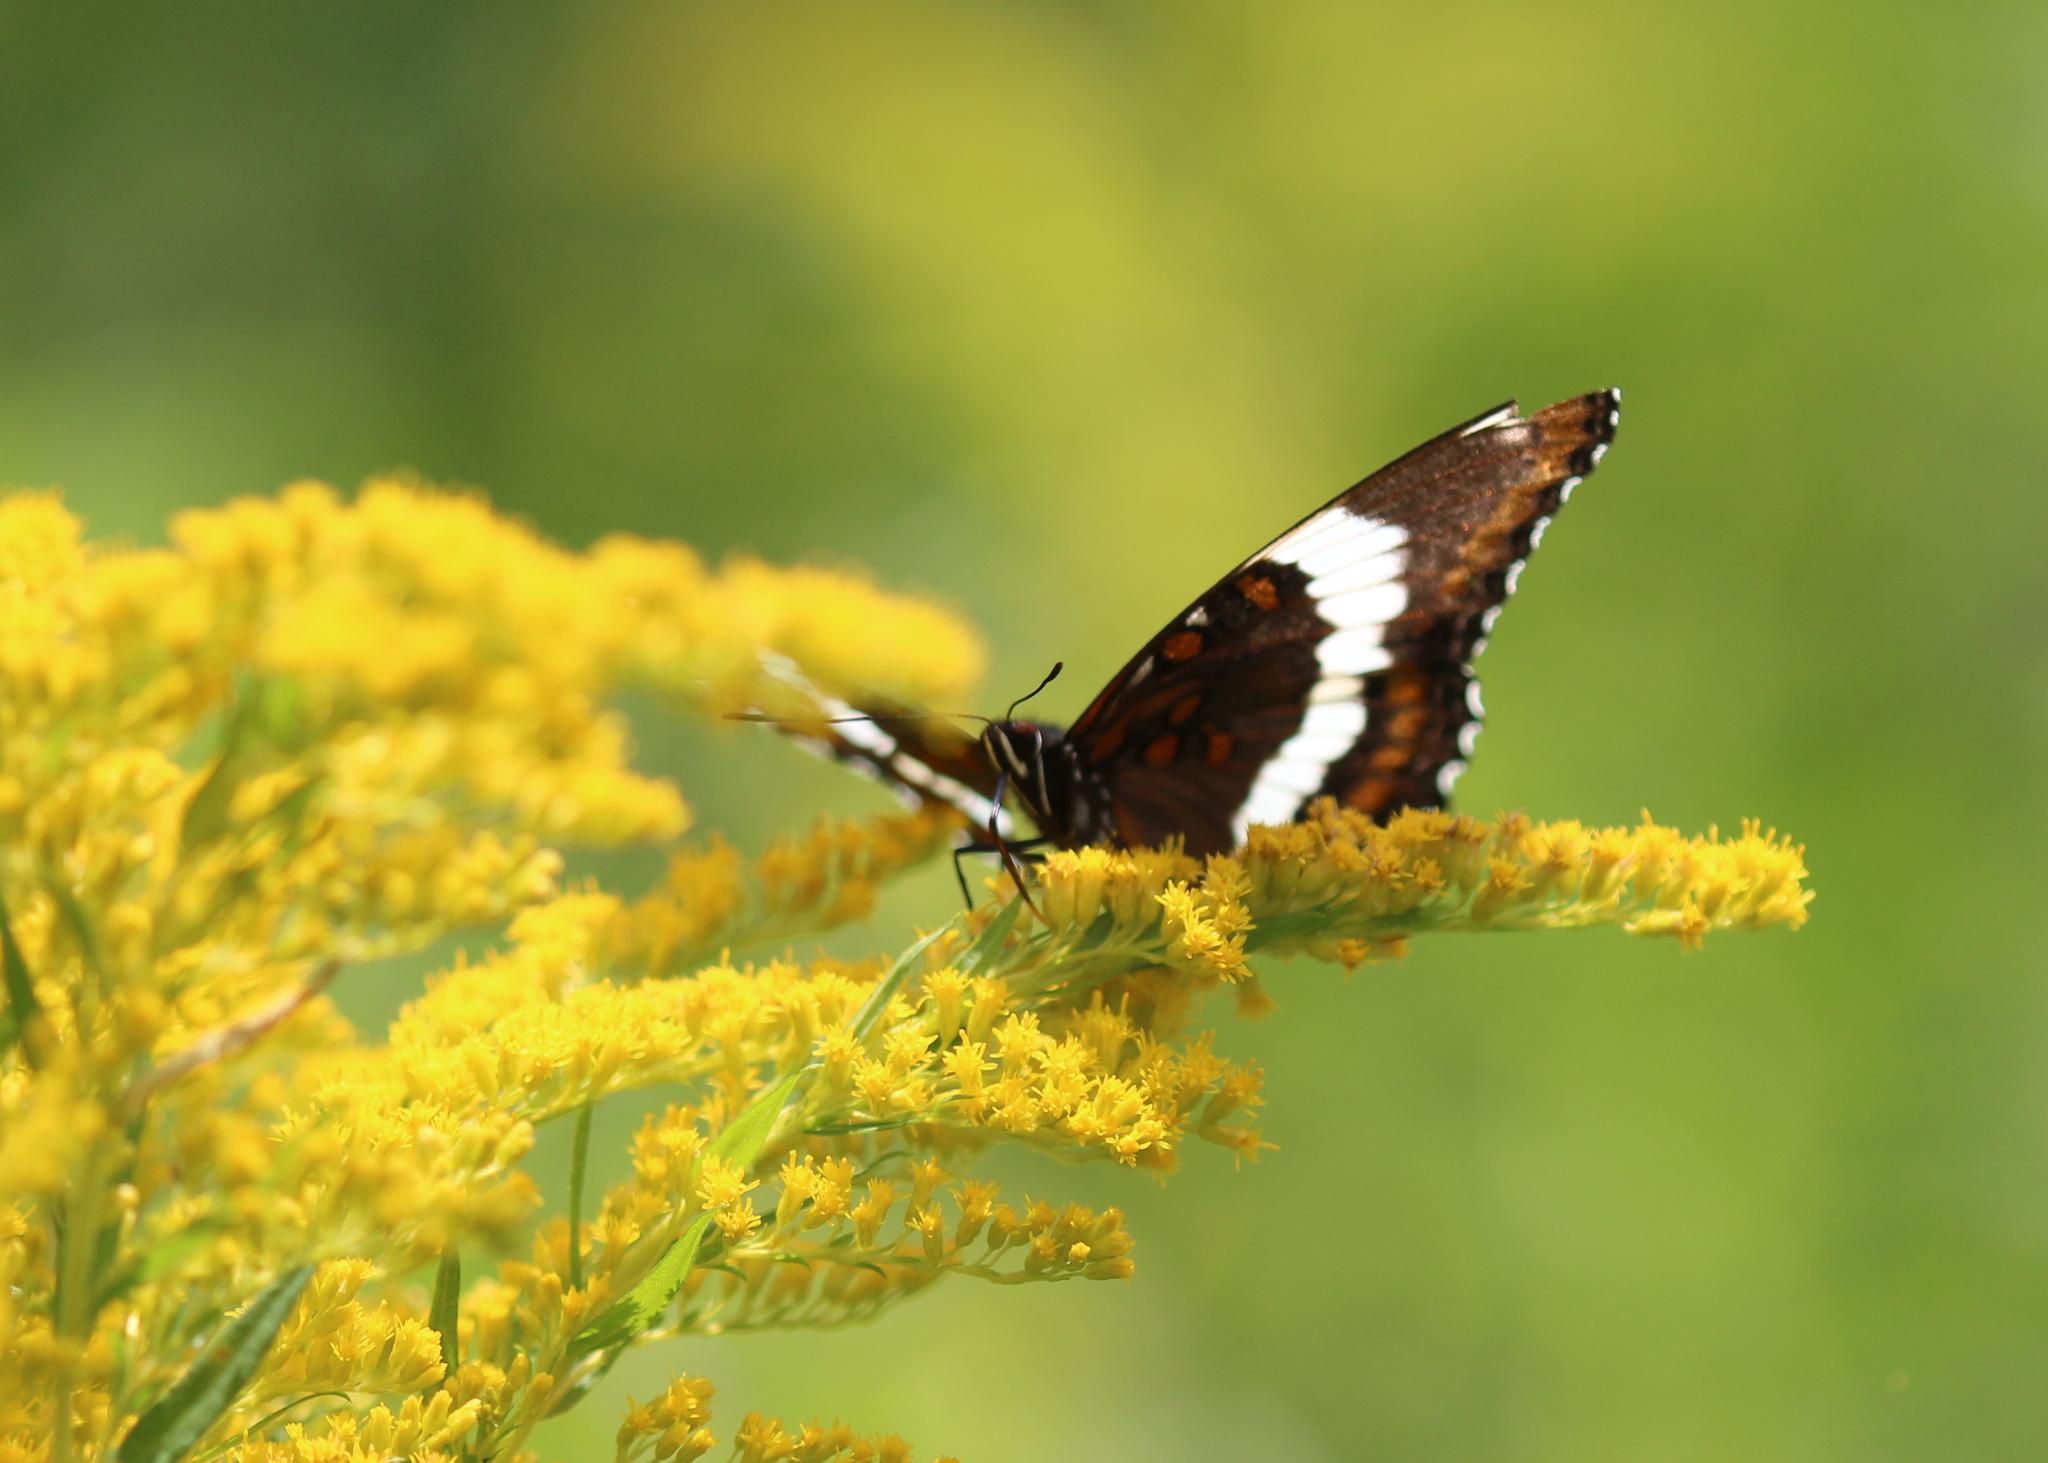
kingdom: Animalia
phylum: Arthropoda
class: Insecta
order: Lepidoptera
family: Nymphalidae
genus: Limenitis
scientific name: Limenitis arthemis
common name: Red-spotted admiral
